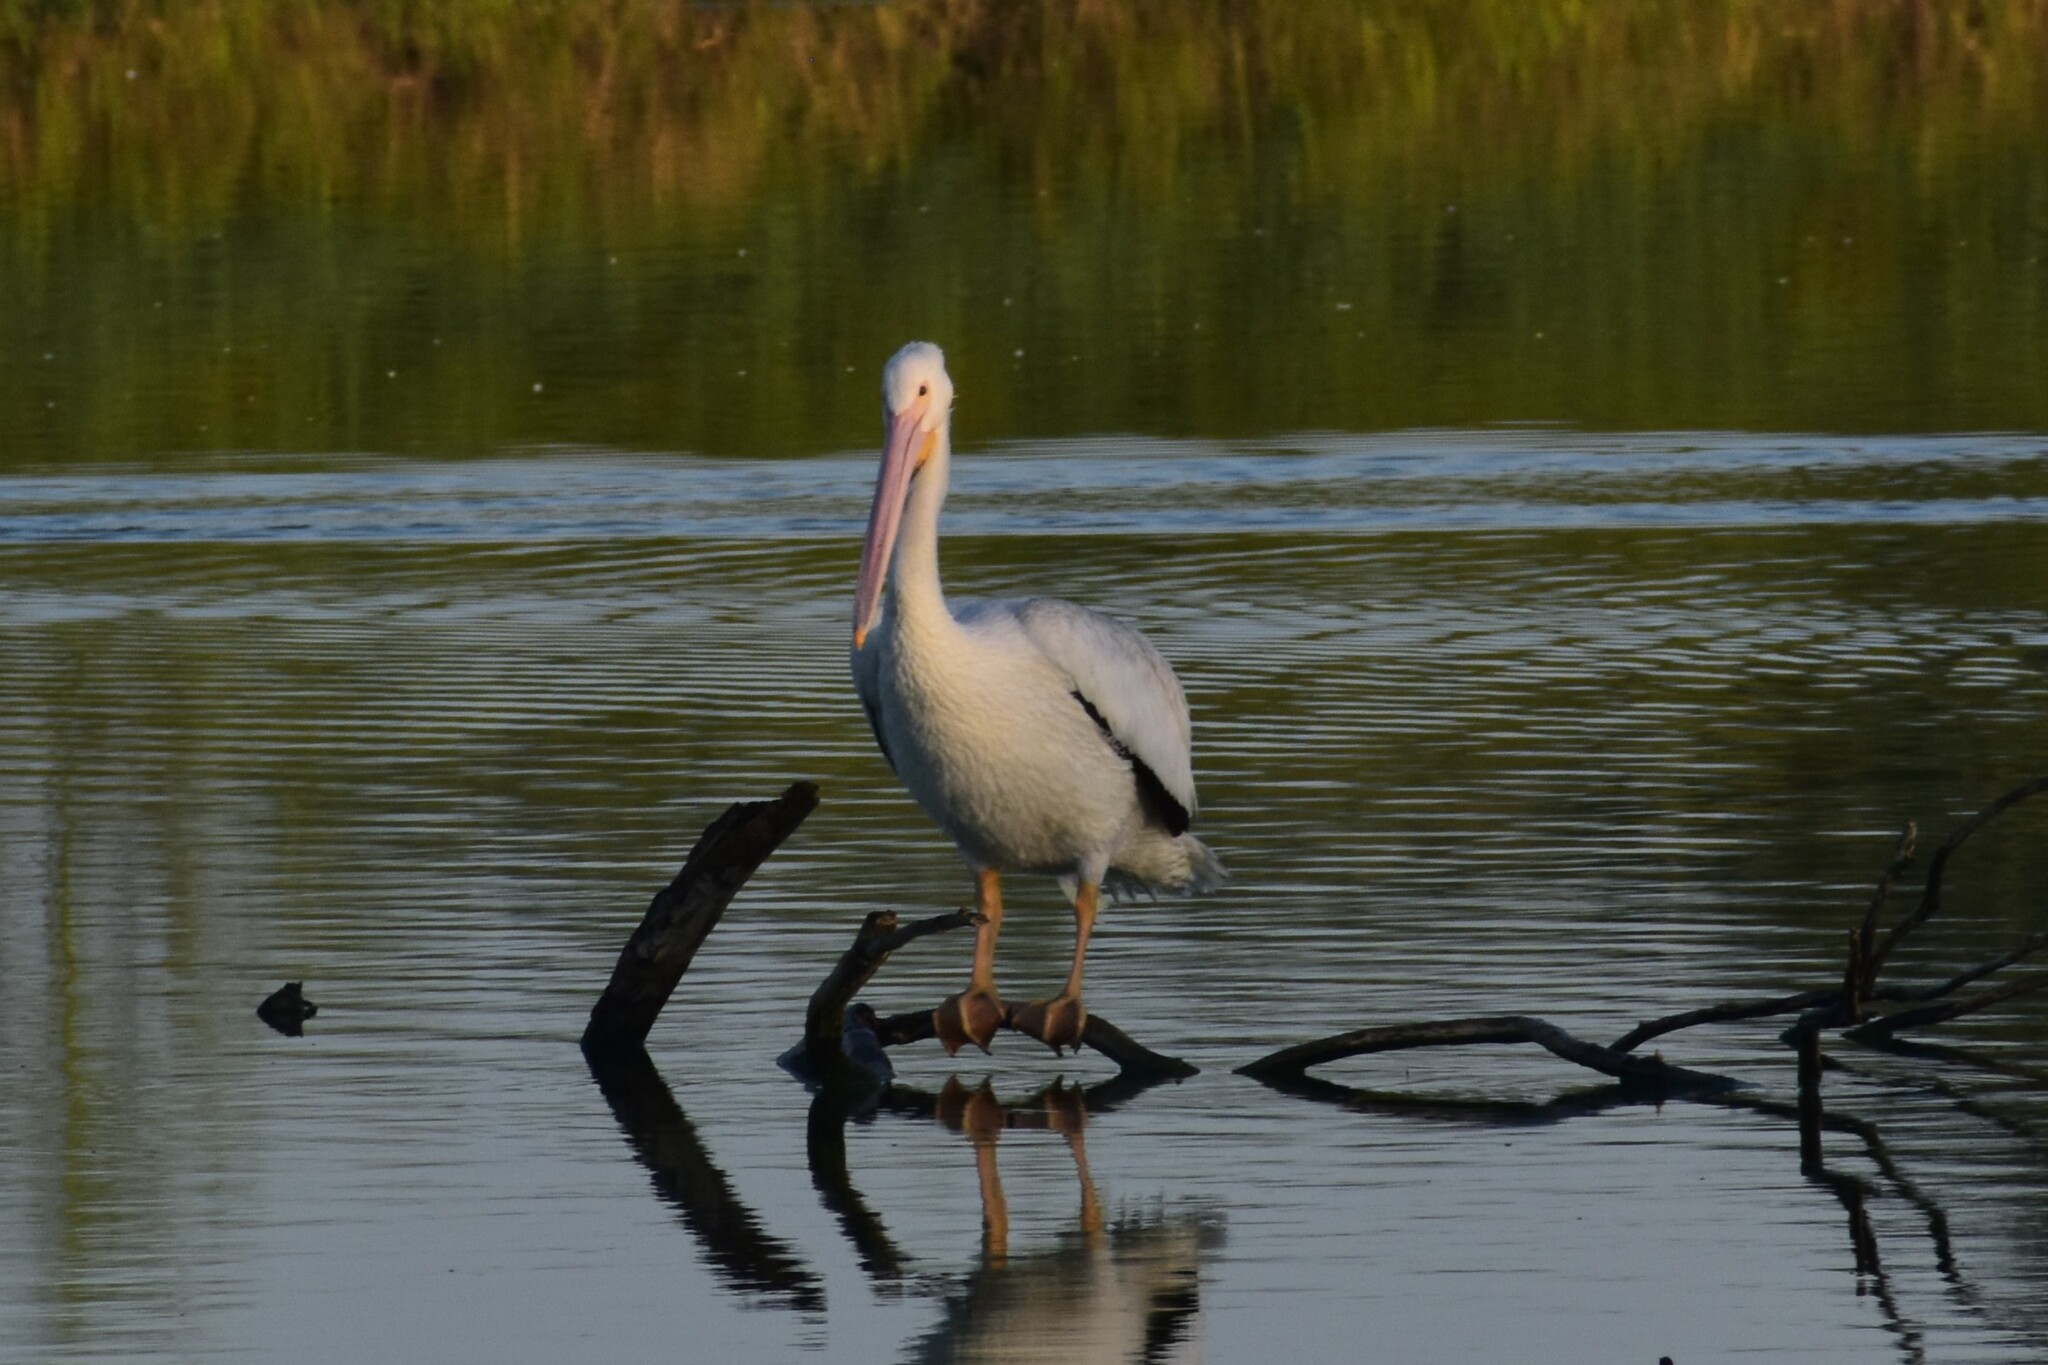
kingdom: Animalia
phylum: Chordata
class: Aves
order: Pelecaniformes
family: Pelecanidae
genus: Pelecanus
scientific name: Pelecanus erythrorhynchos
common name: American white pelican
